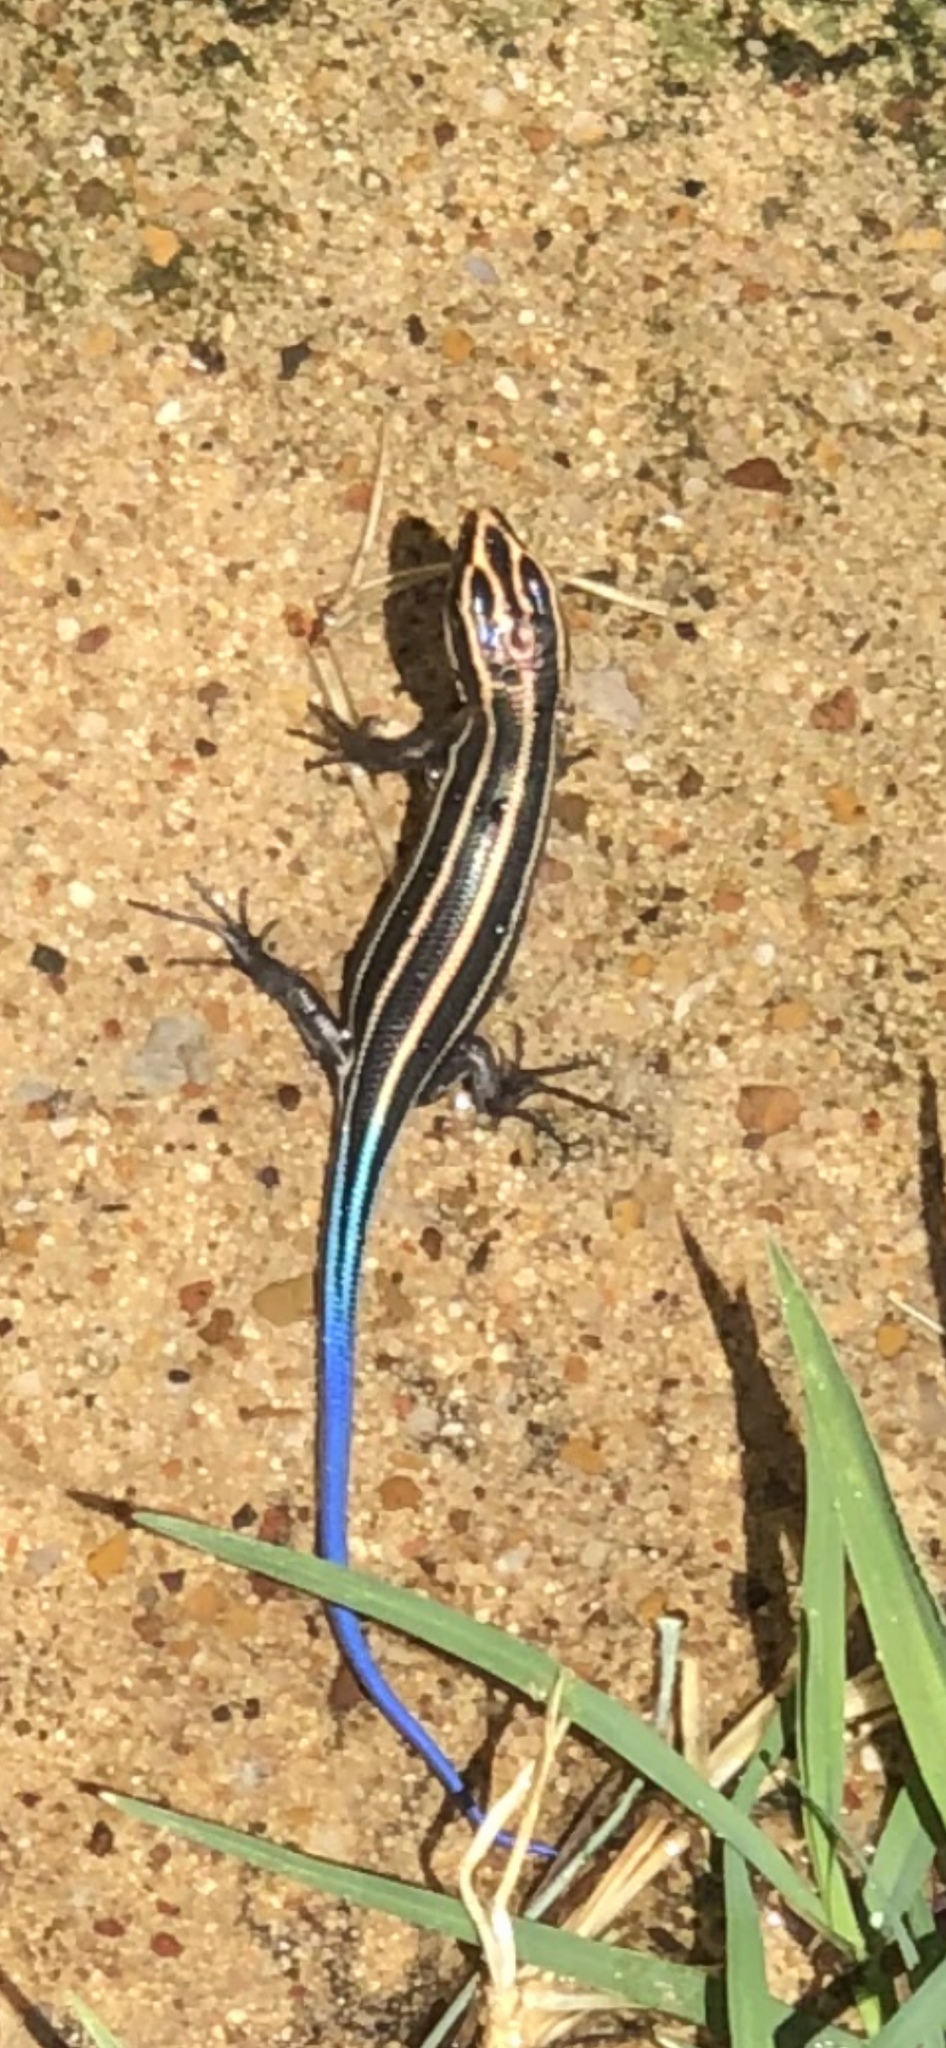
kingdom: Animalia
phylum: Chordata
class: Squamata
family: Scincidae
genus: Plestiodon
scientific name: Plestiodon fasciatus
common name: Five-lined skink
